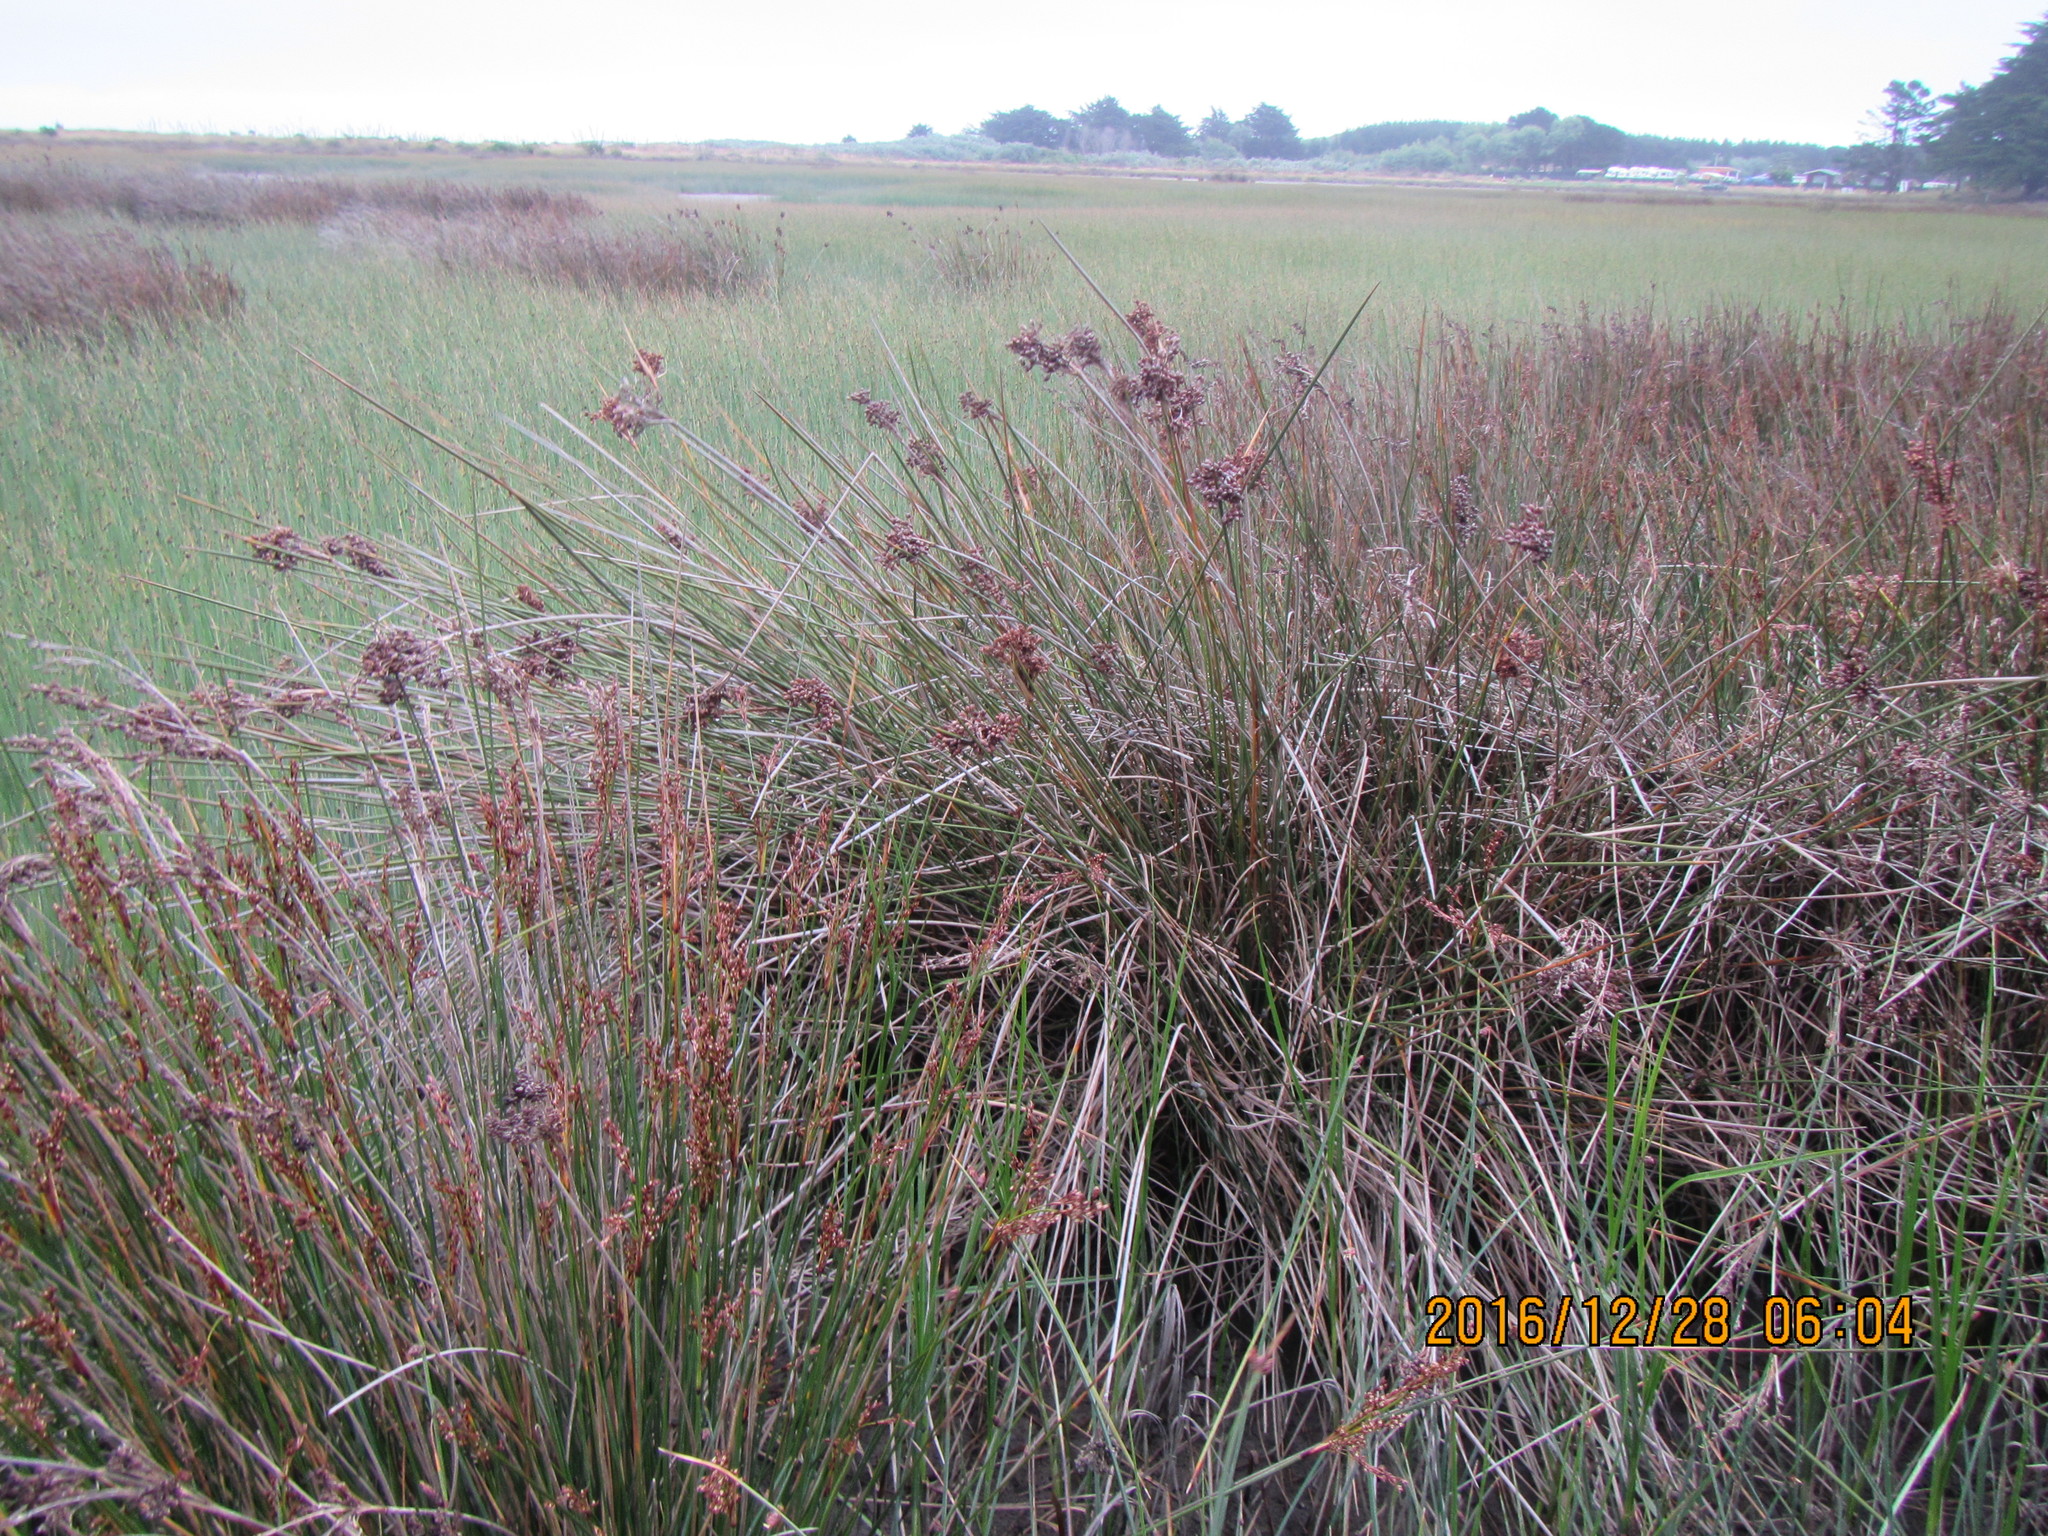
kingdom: Plantae
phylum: Tracheophyta
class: Liliopsida
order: Poales
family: Juncaceae
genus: Juncus
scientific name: Juncus acutus
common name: Sharp rush
